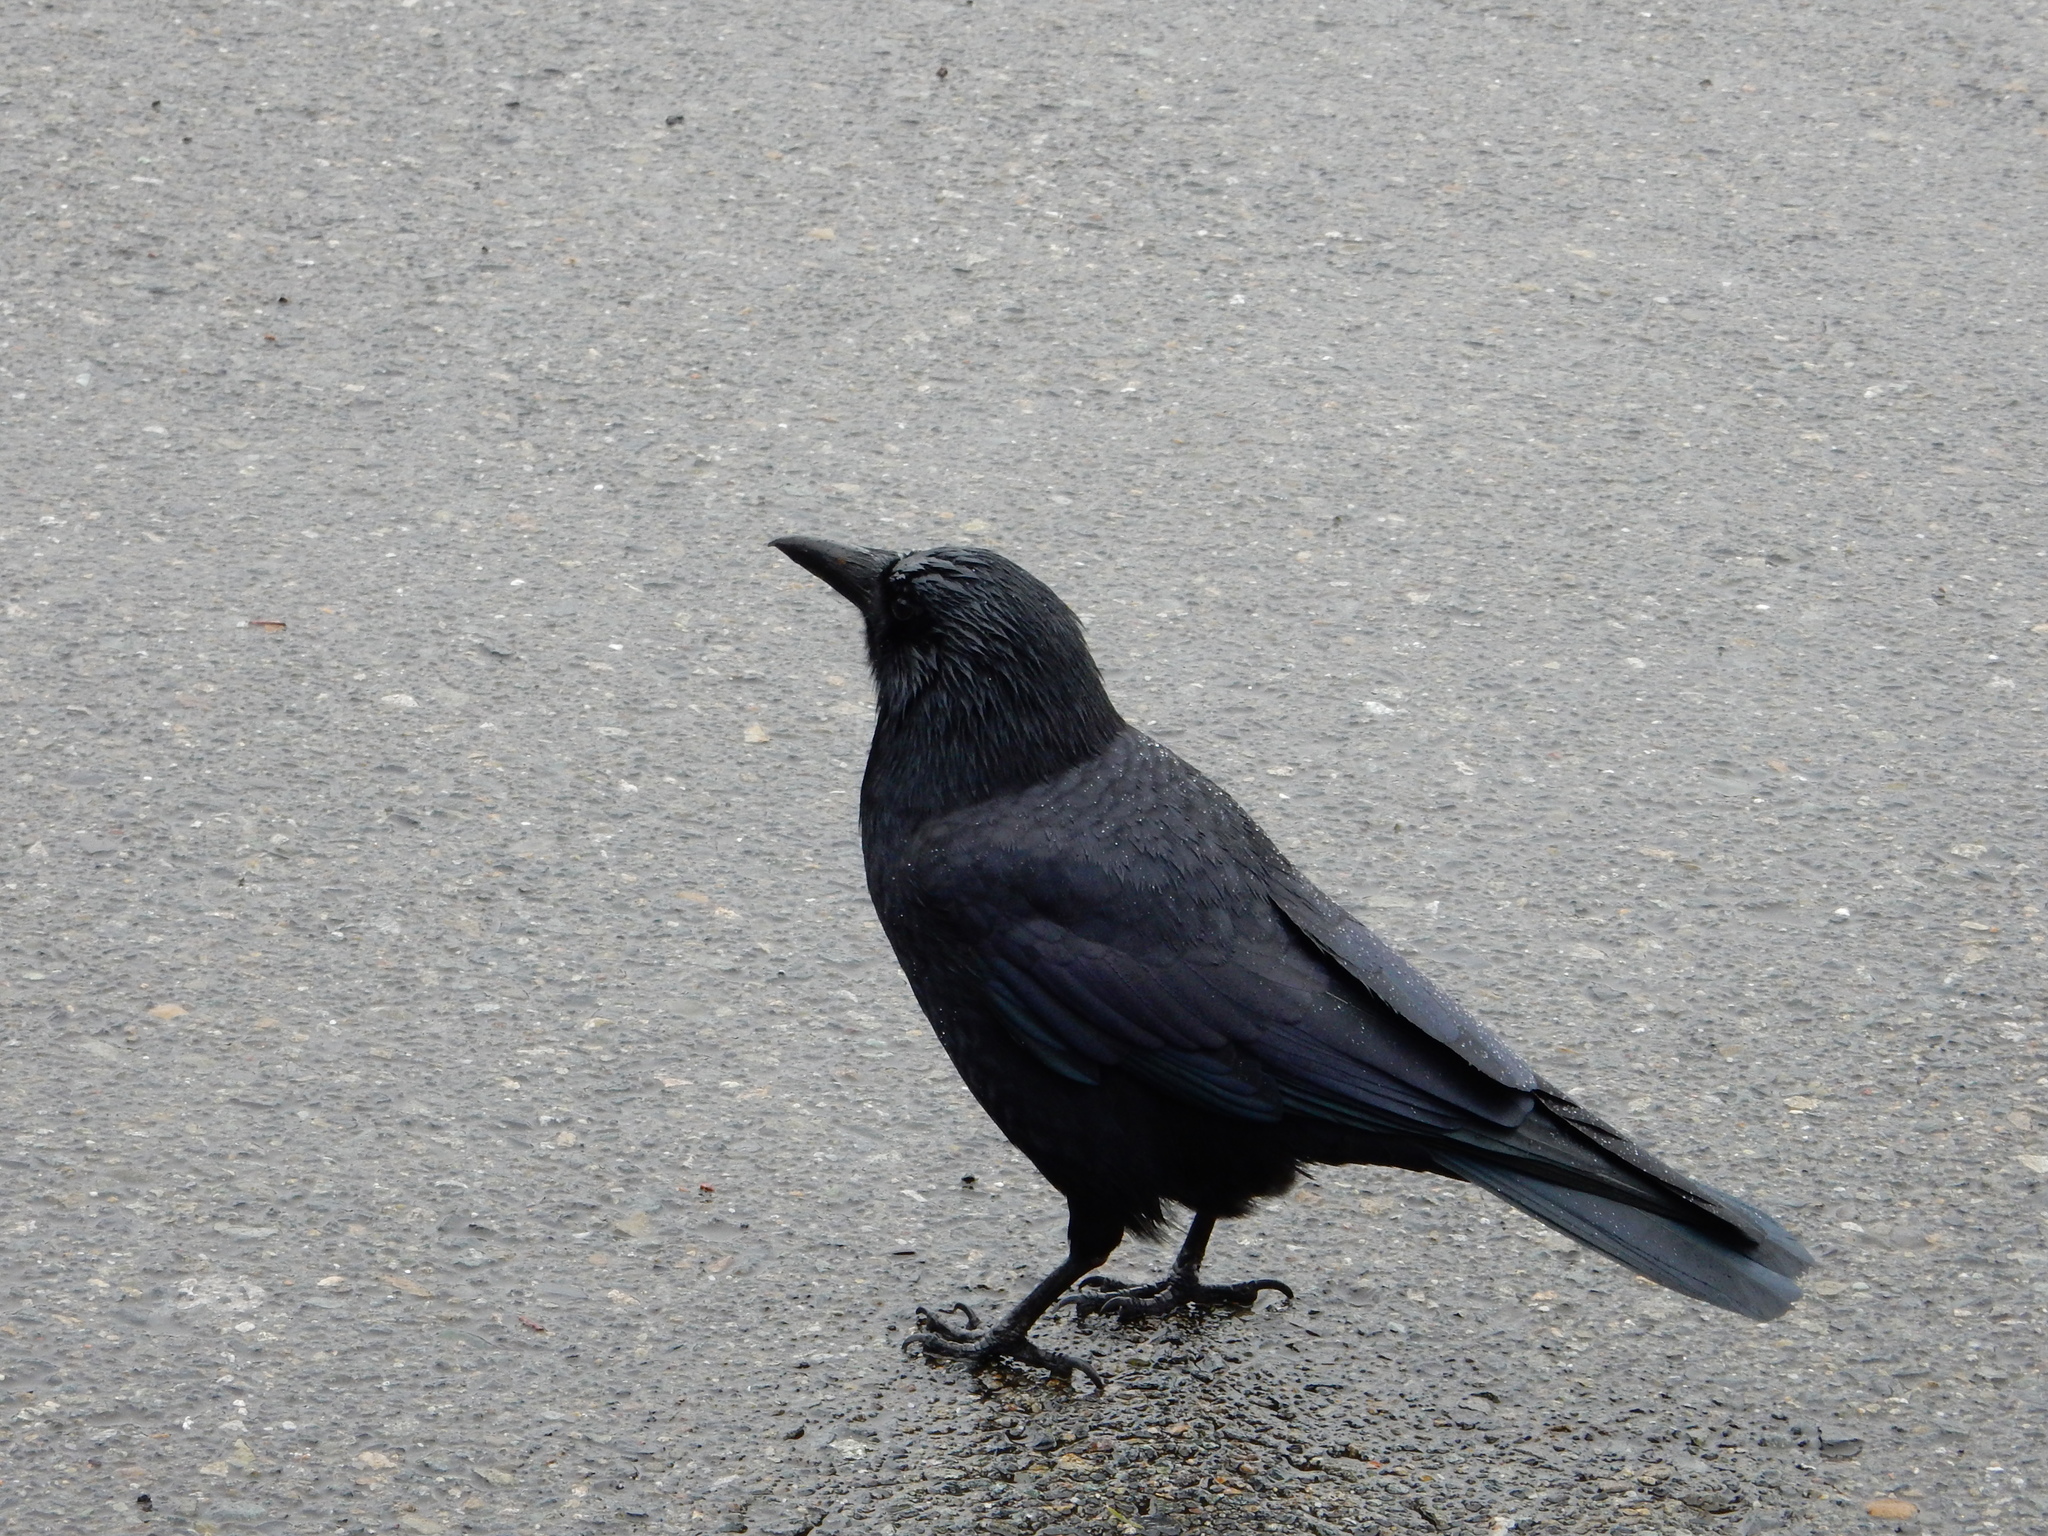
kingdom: Animalia
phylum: Chordata
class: Aves
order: Passeriformes
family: Corvidae
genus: Corvus
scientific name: Corvus brachyrhynchos
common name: American crow
